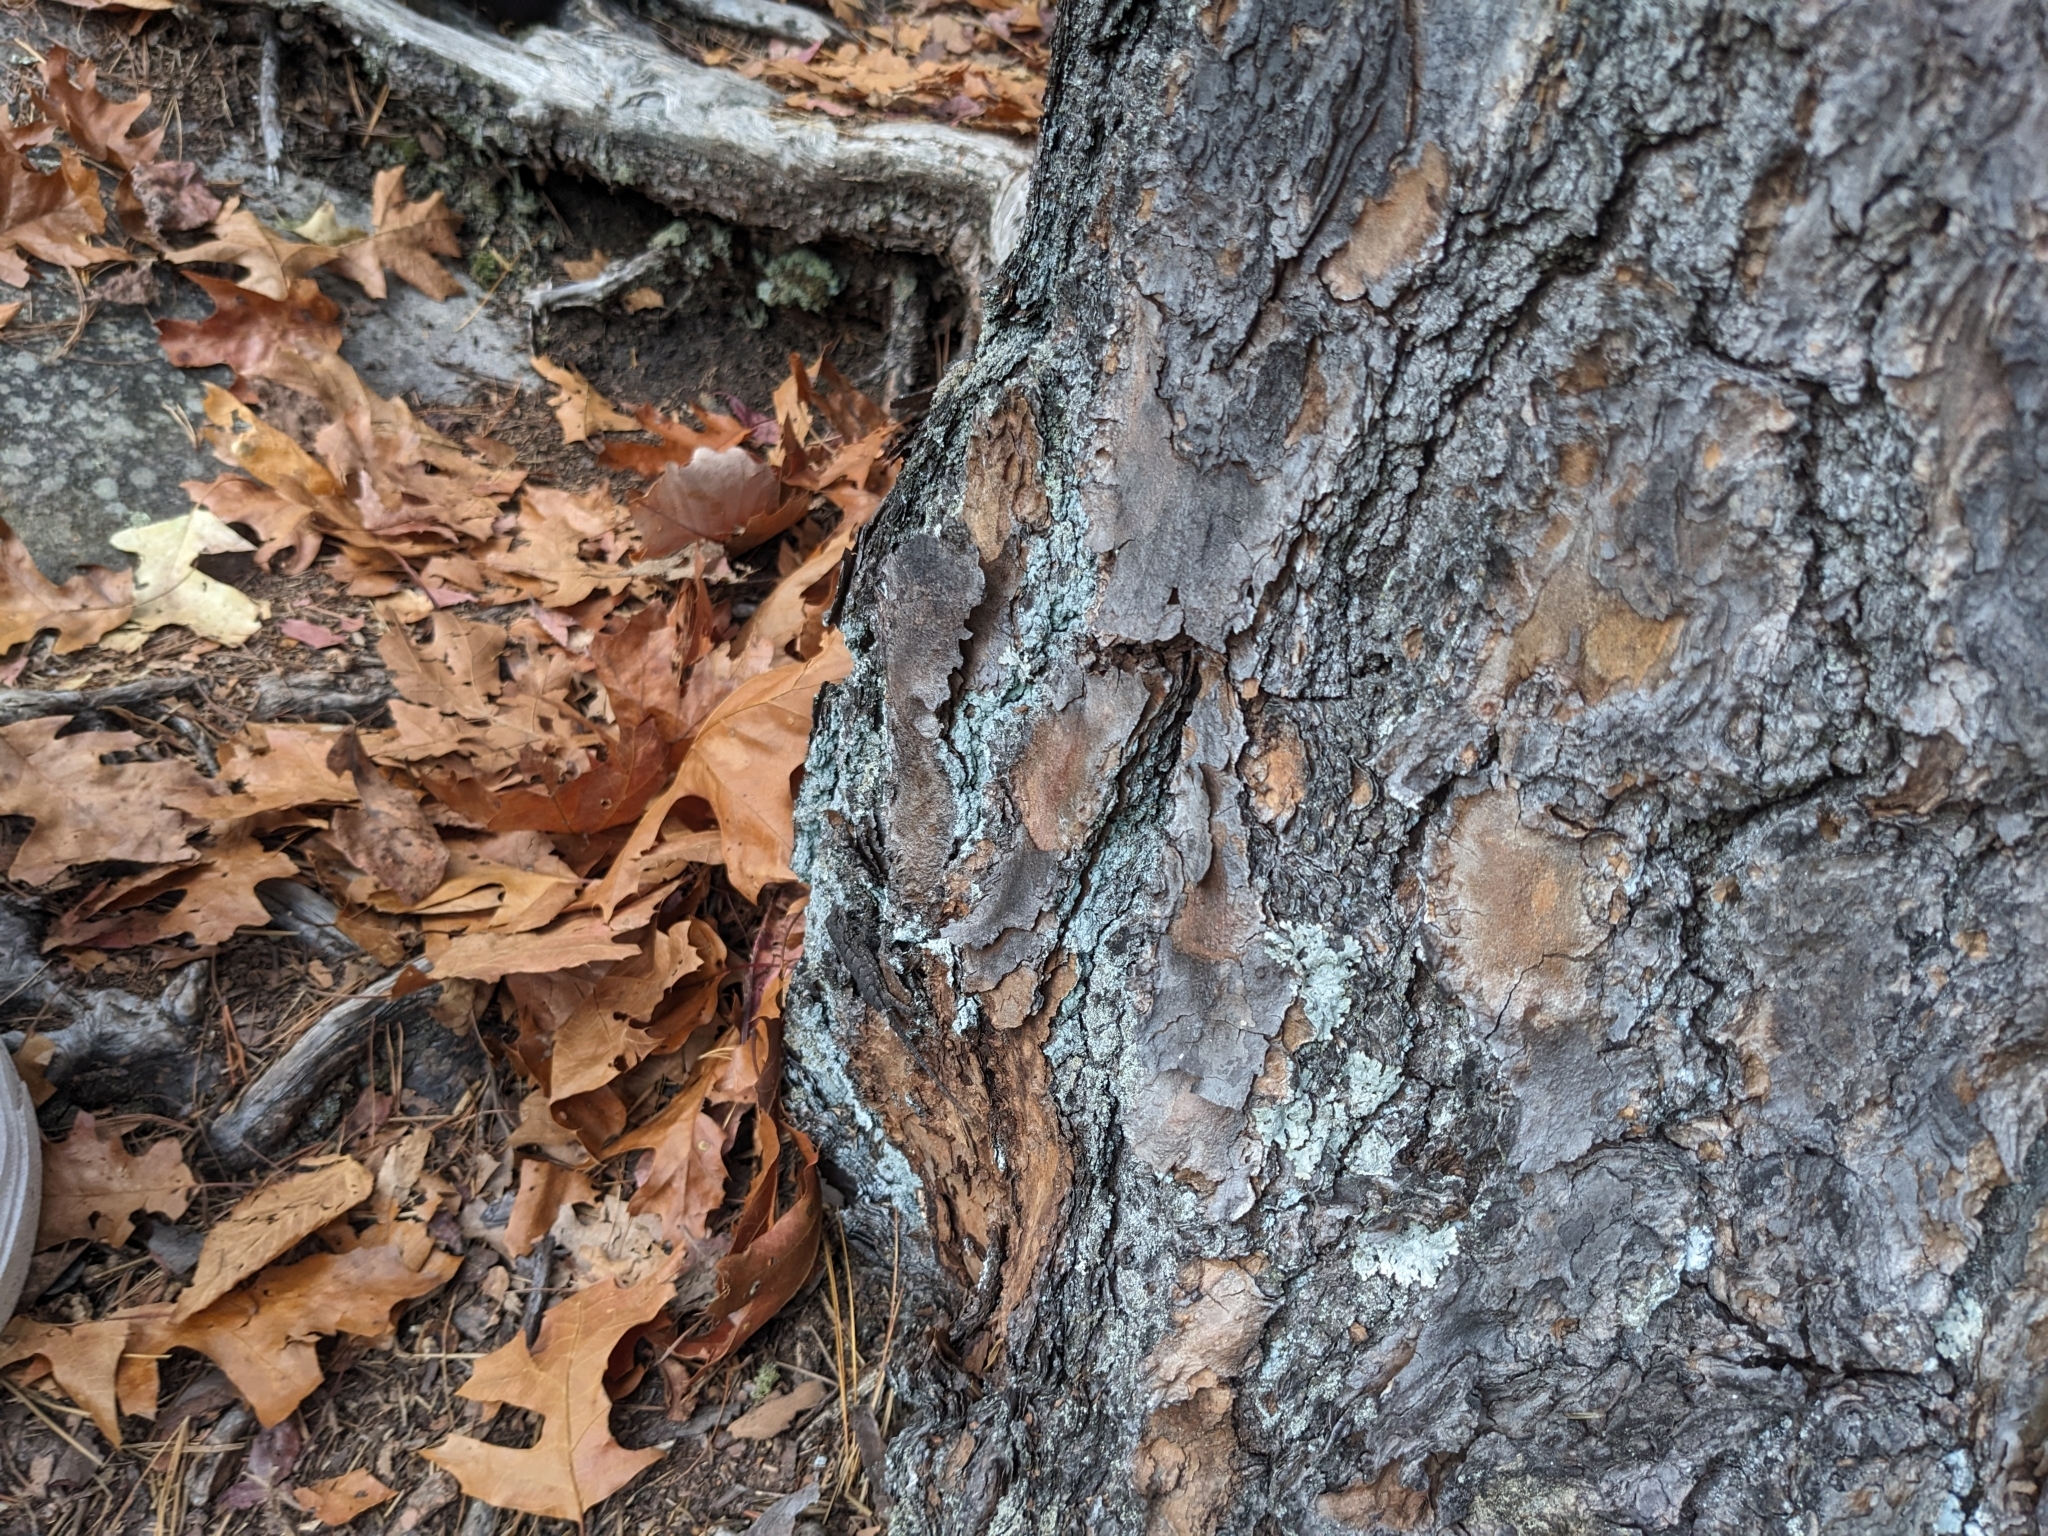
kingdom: Animalia
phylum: Chordata
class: Squamata
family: Phrynosomatidae
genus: Sceloporus
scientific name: Sceloporus undulatus
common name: Eastern fence lizard
